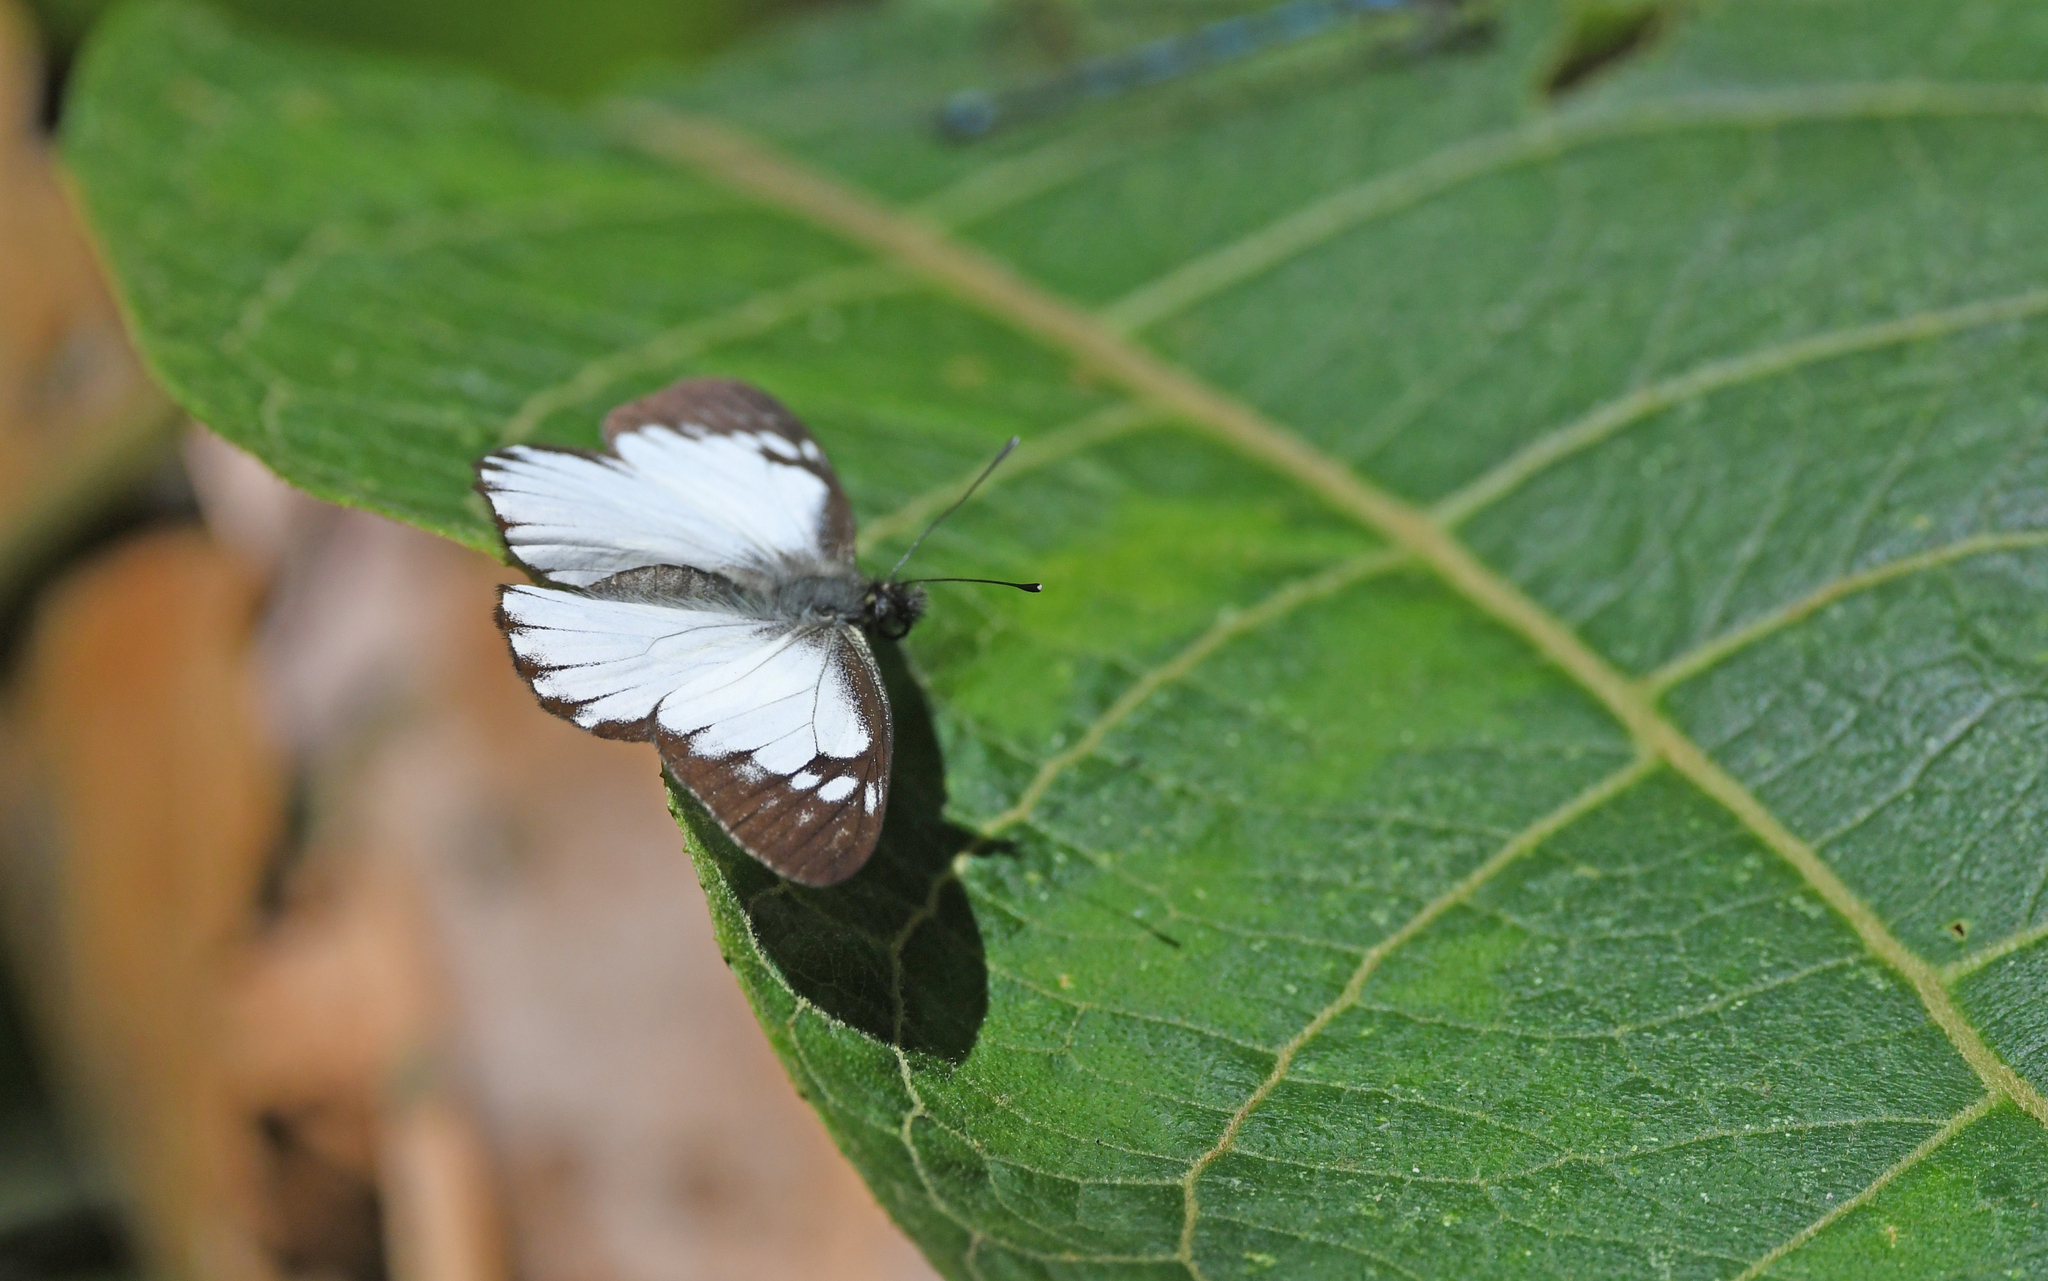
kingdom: Animalia
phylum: Arthropoda
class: Insecta
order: Lepidoptera
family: Pieridae
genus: Catasticta
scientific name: Catasticta notha
